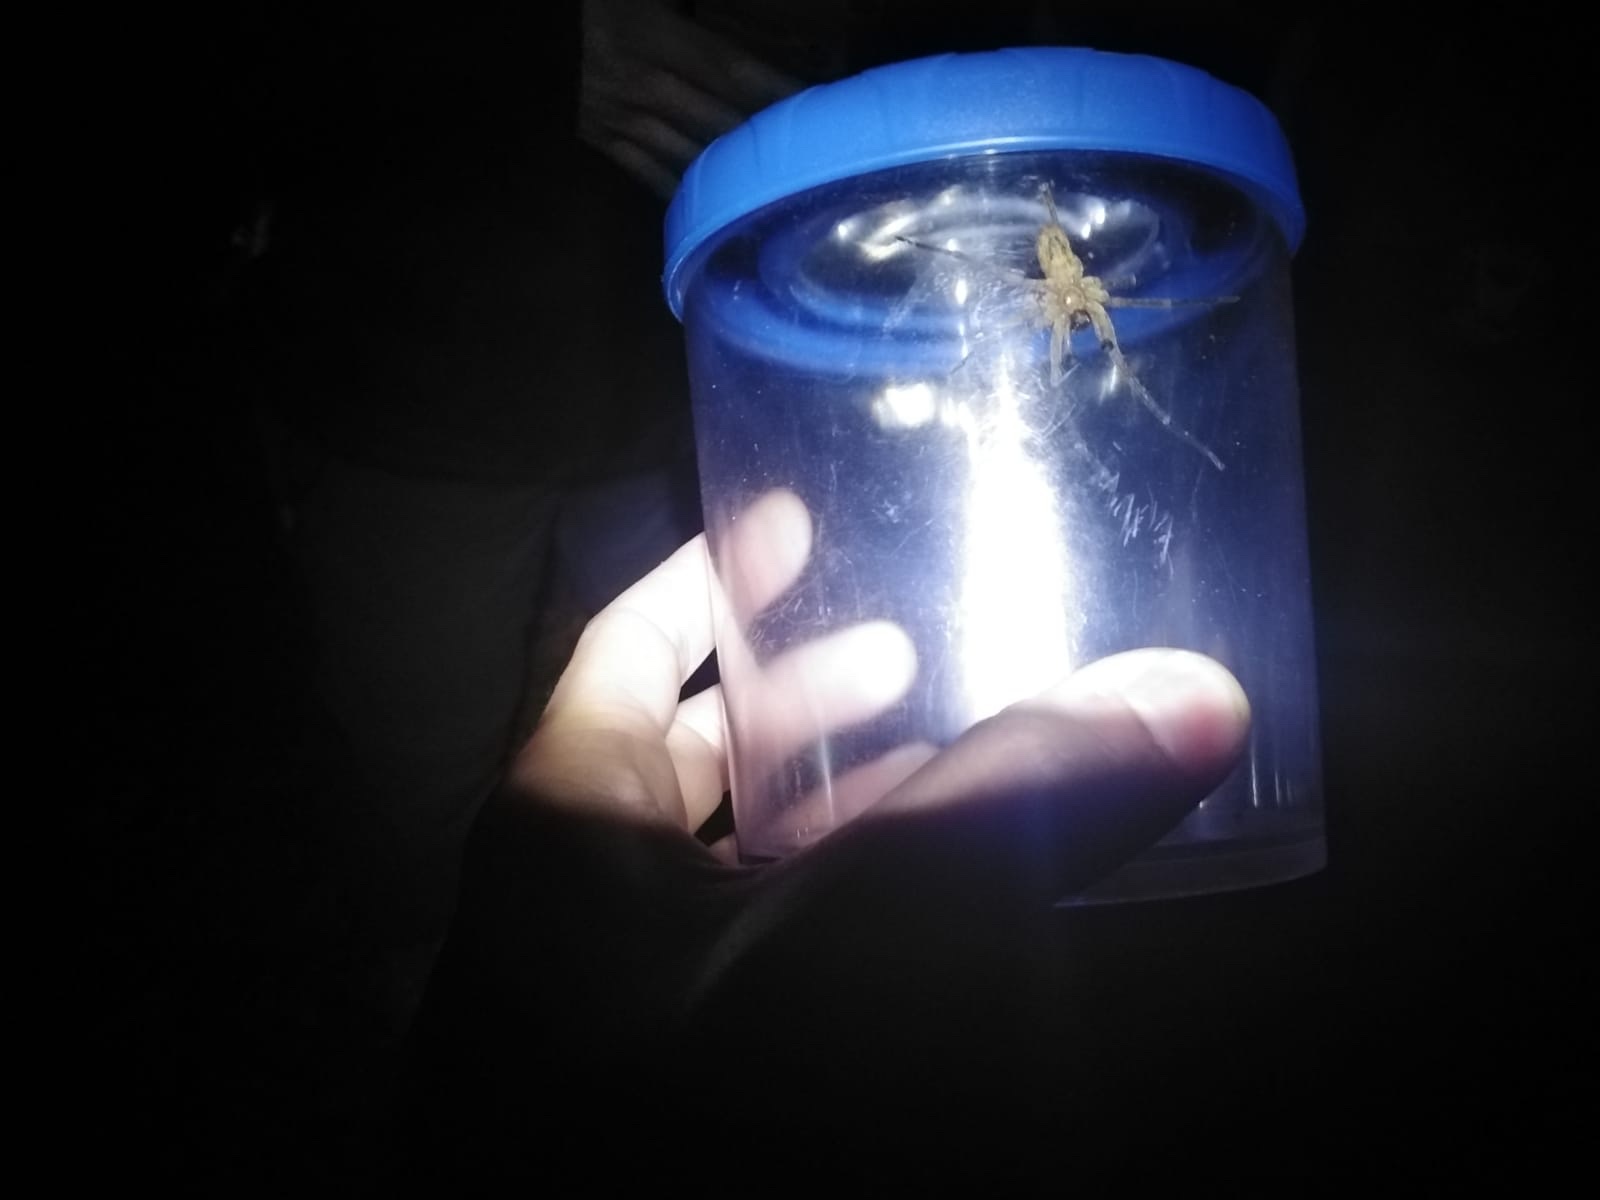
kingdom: Animalia
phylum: Arthropoda
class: Arachnida
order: Araneae
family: Zoropsidae
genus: Zoropsis
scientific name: Zoropsis spinimana
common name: Zoropsid spider
